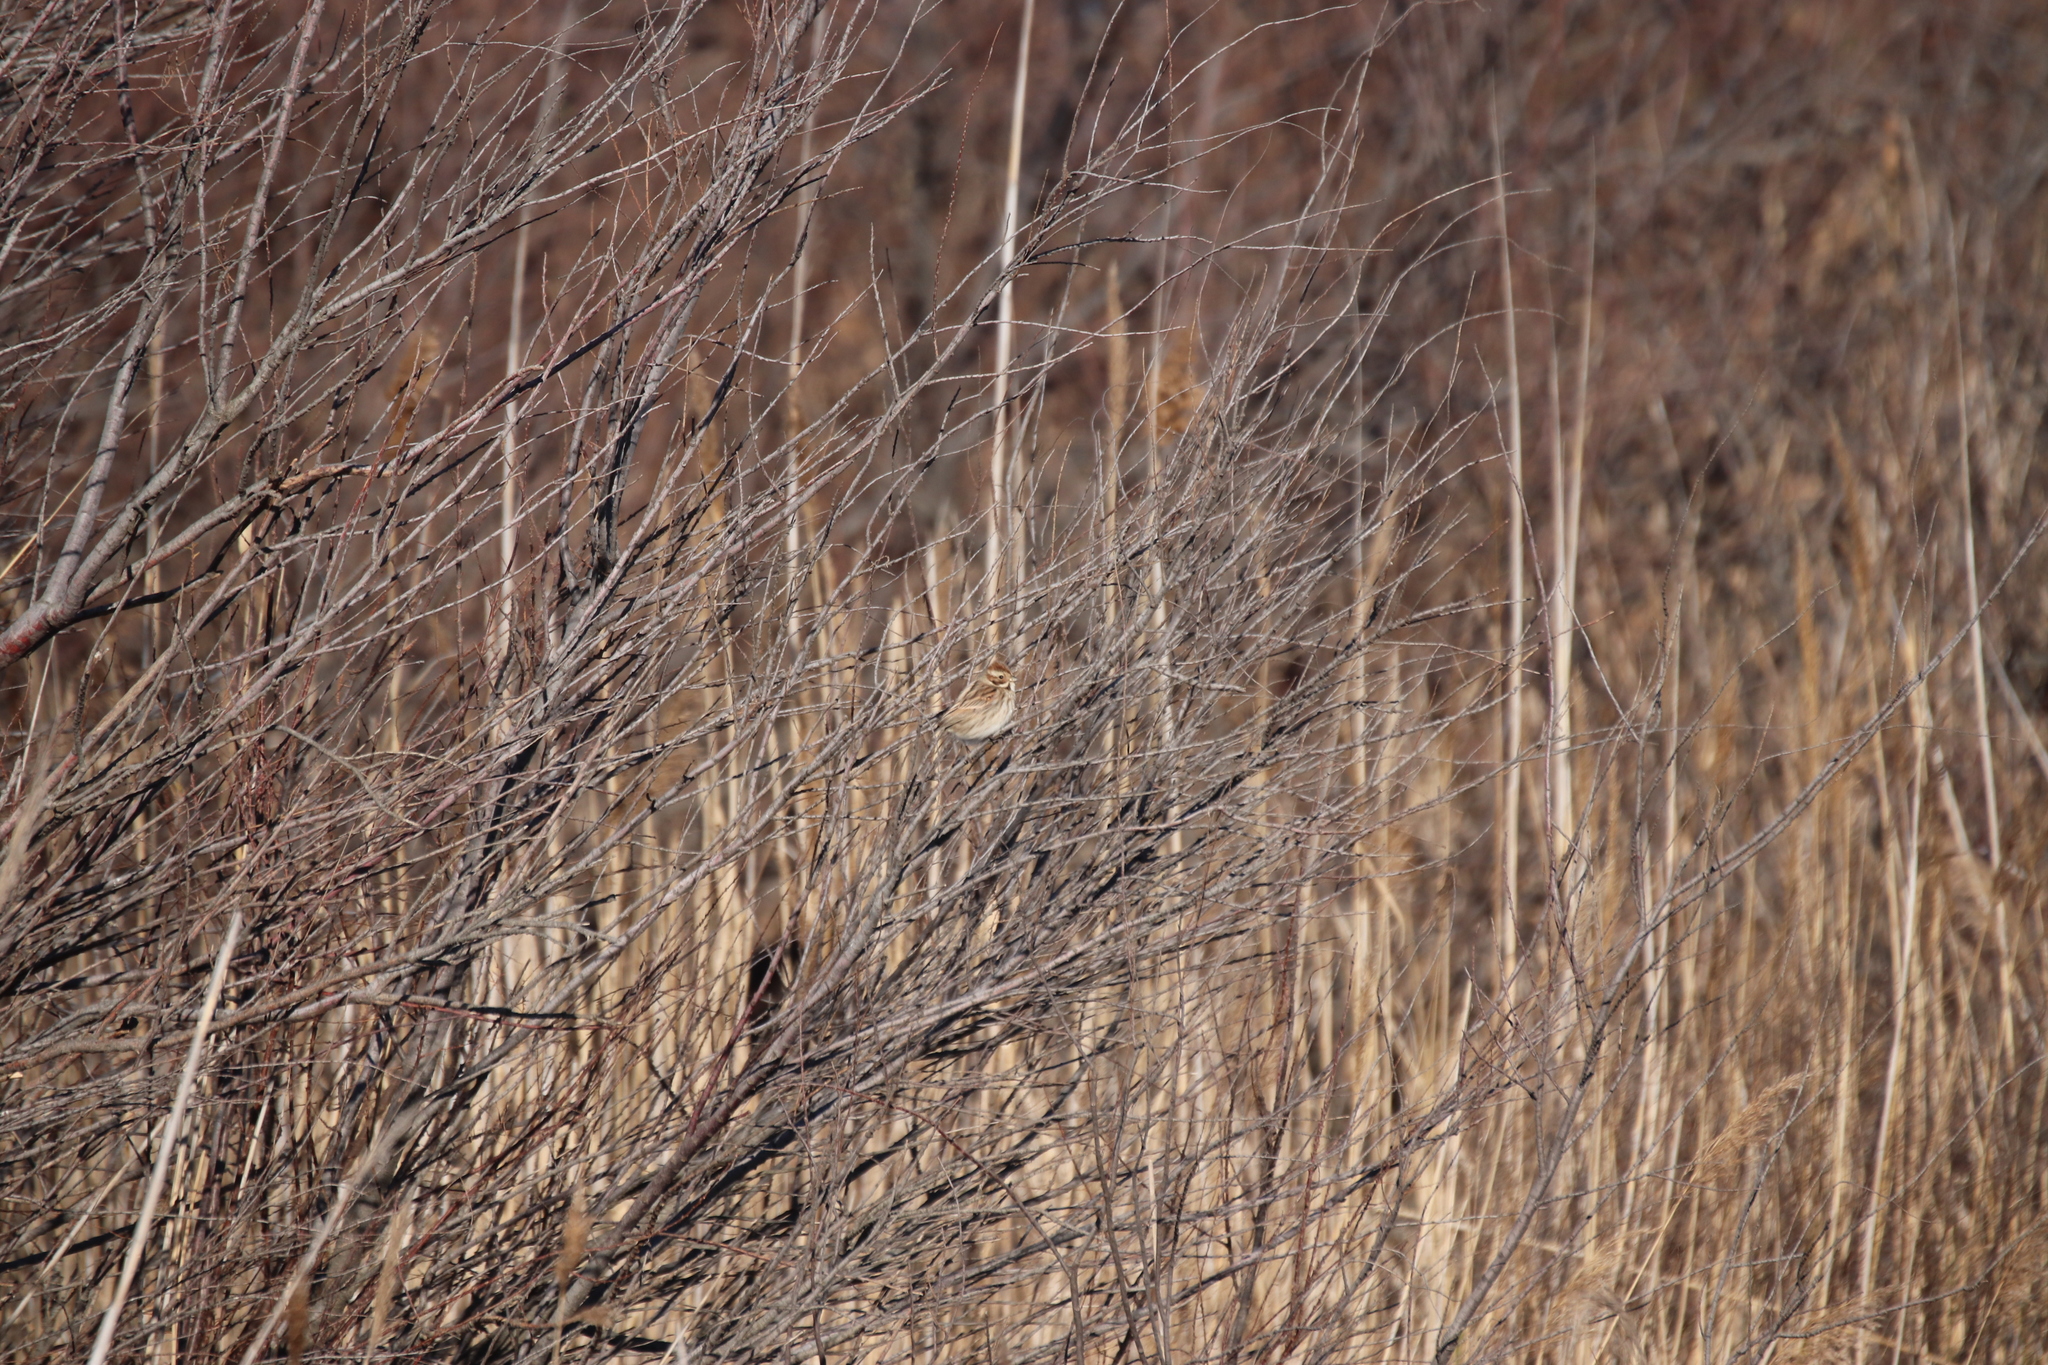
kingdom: Animalia
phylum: Chordata
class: Aves
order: Passeriformes
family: Emberizidae
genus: Emberiza
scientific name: Emberiza schoeniclus
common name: Reed bunting
